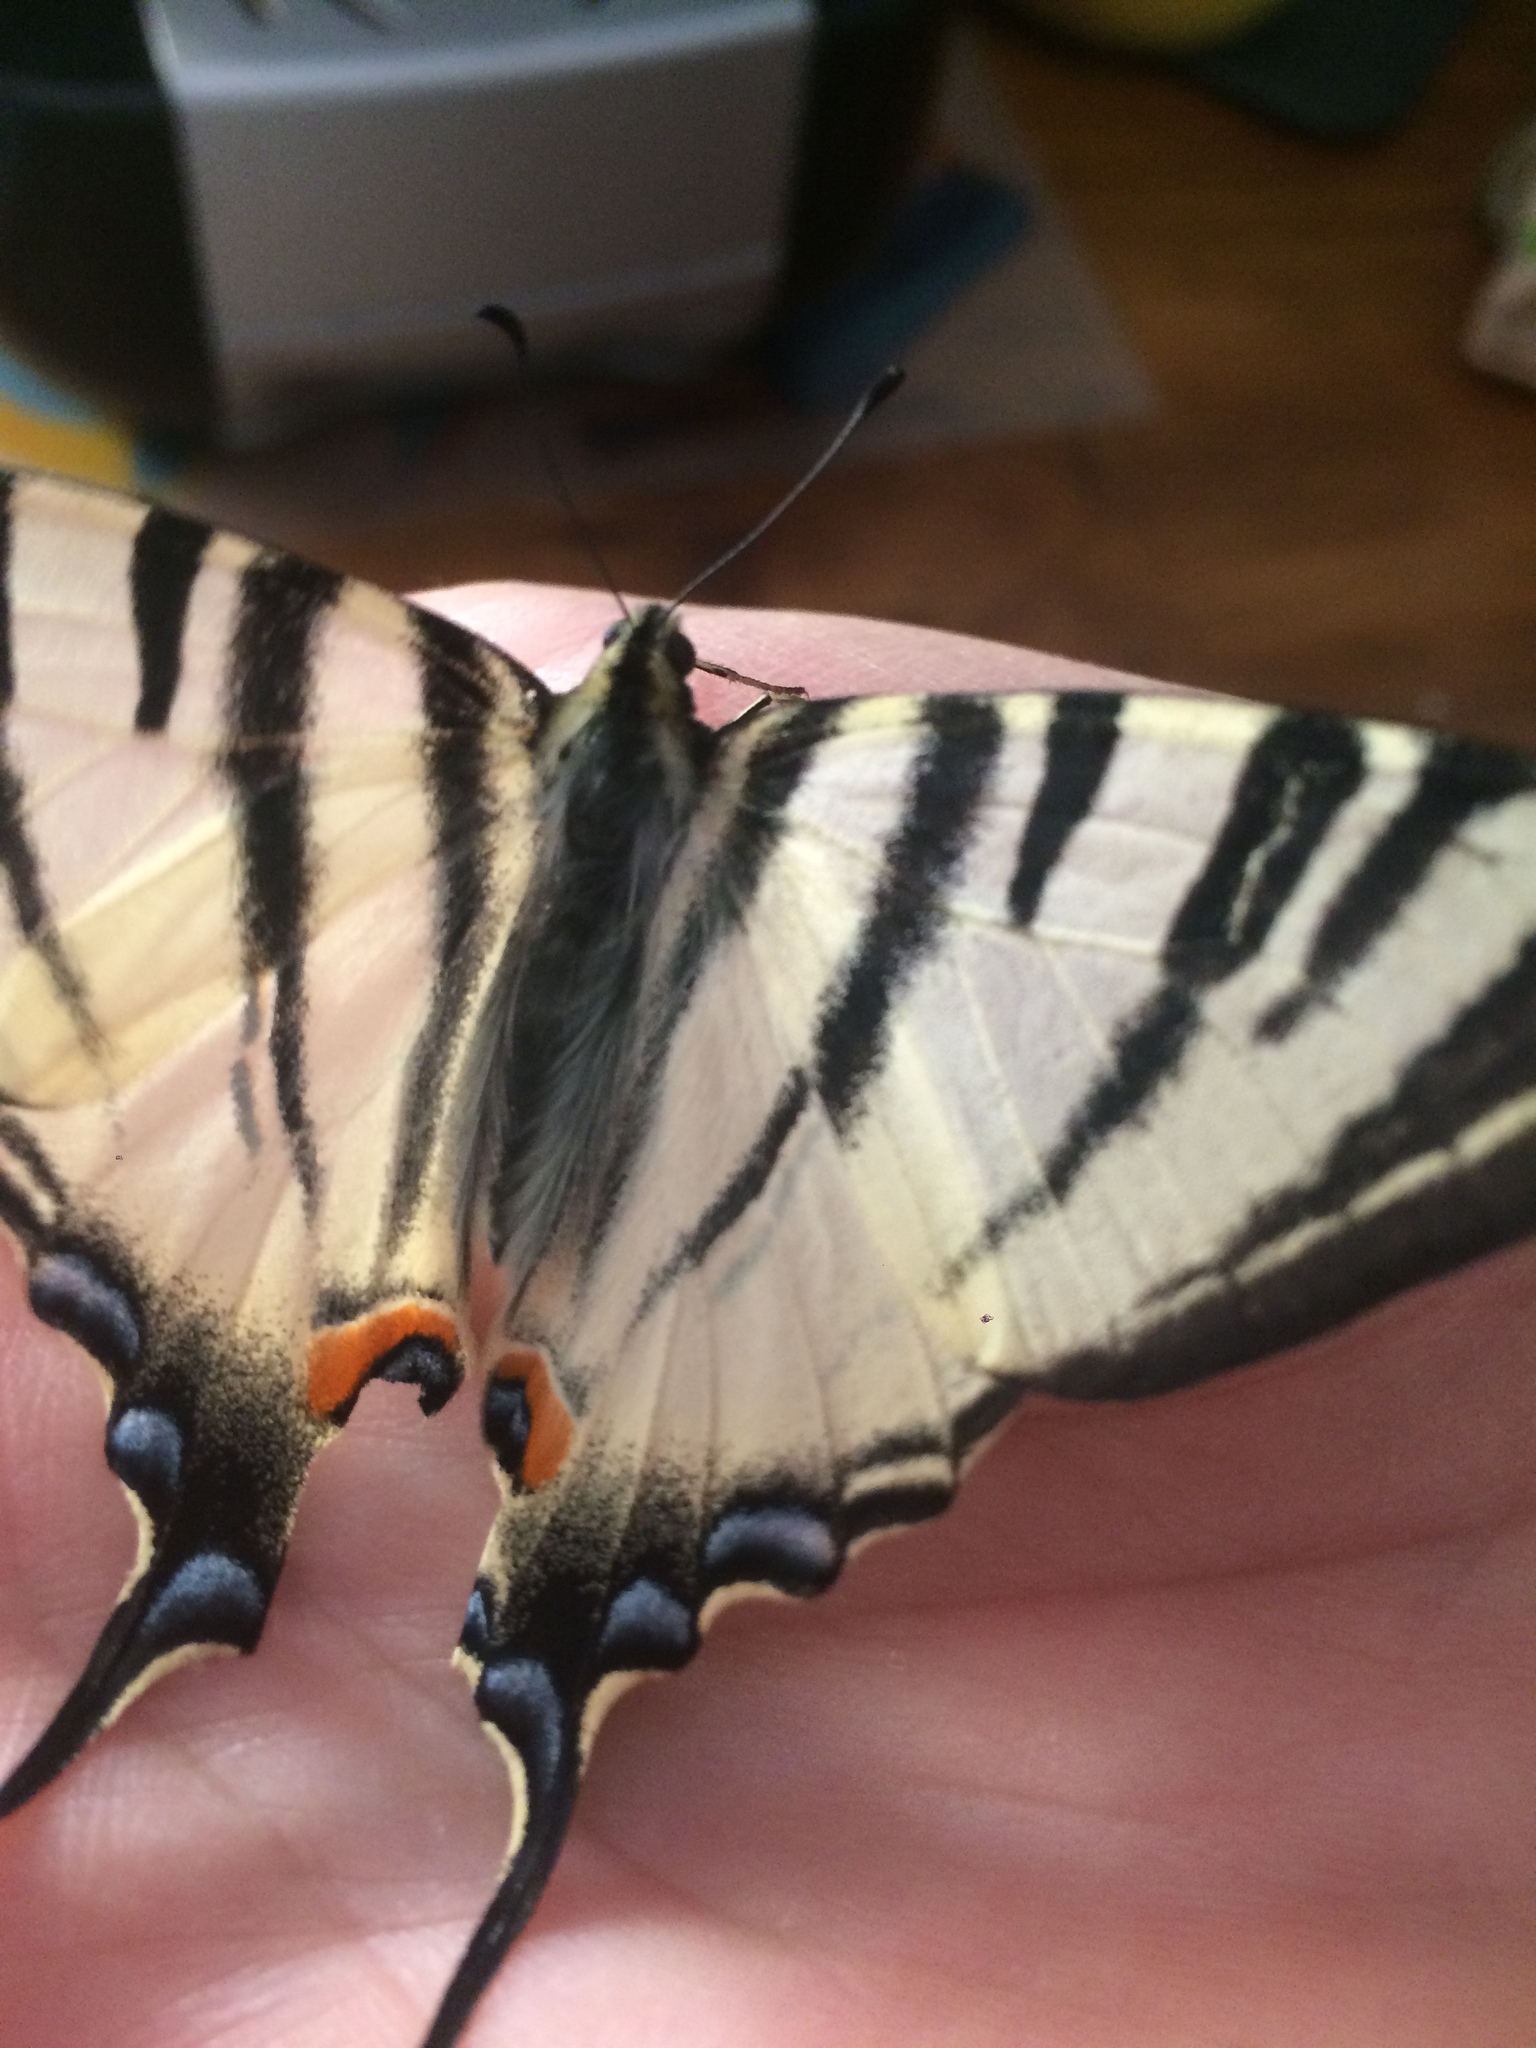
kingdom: Animalia
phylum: Arthropoda
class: Insecta
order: Lepidoptera
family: Papilionidae
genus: Iphiclides
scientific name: Iphiclides podalirius
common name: Scarce swallowtail
